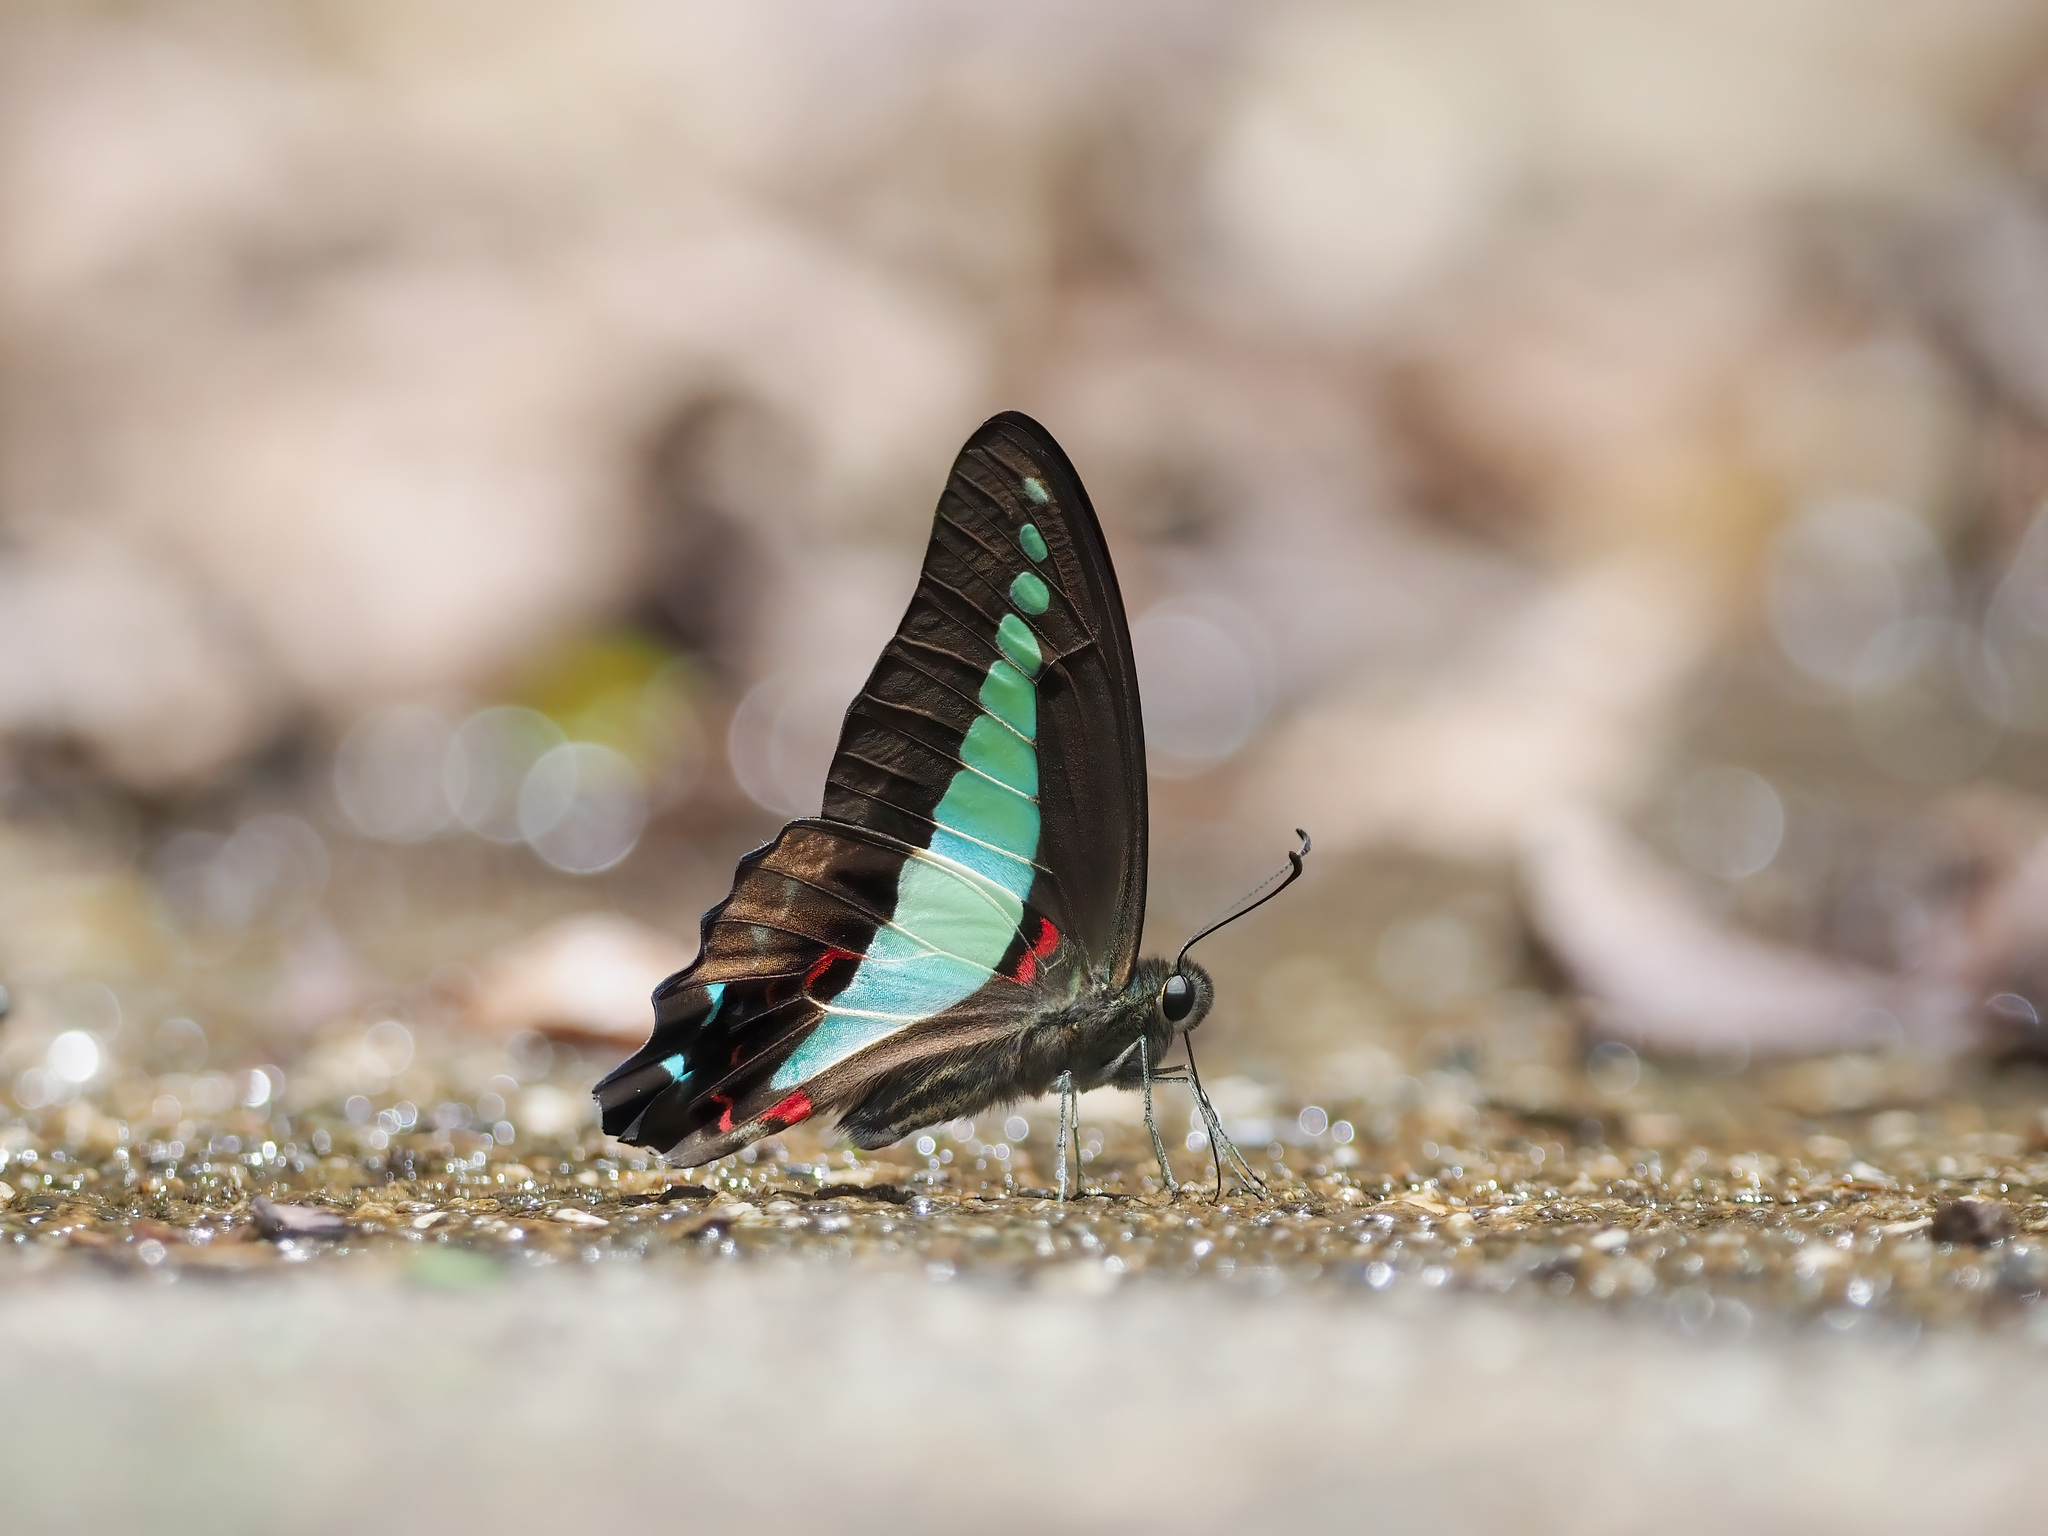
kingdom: Fungi
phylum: Ascomycota
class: Sordariomycetes
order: Microascales
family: Microascaceae
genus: Graphium
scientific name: Graphium sarpedon
